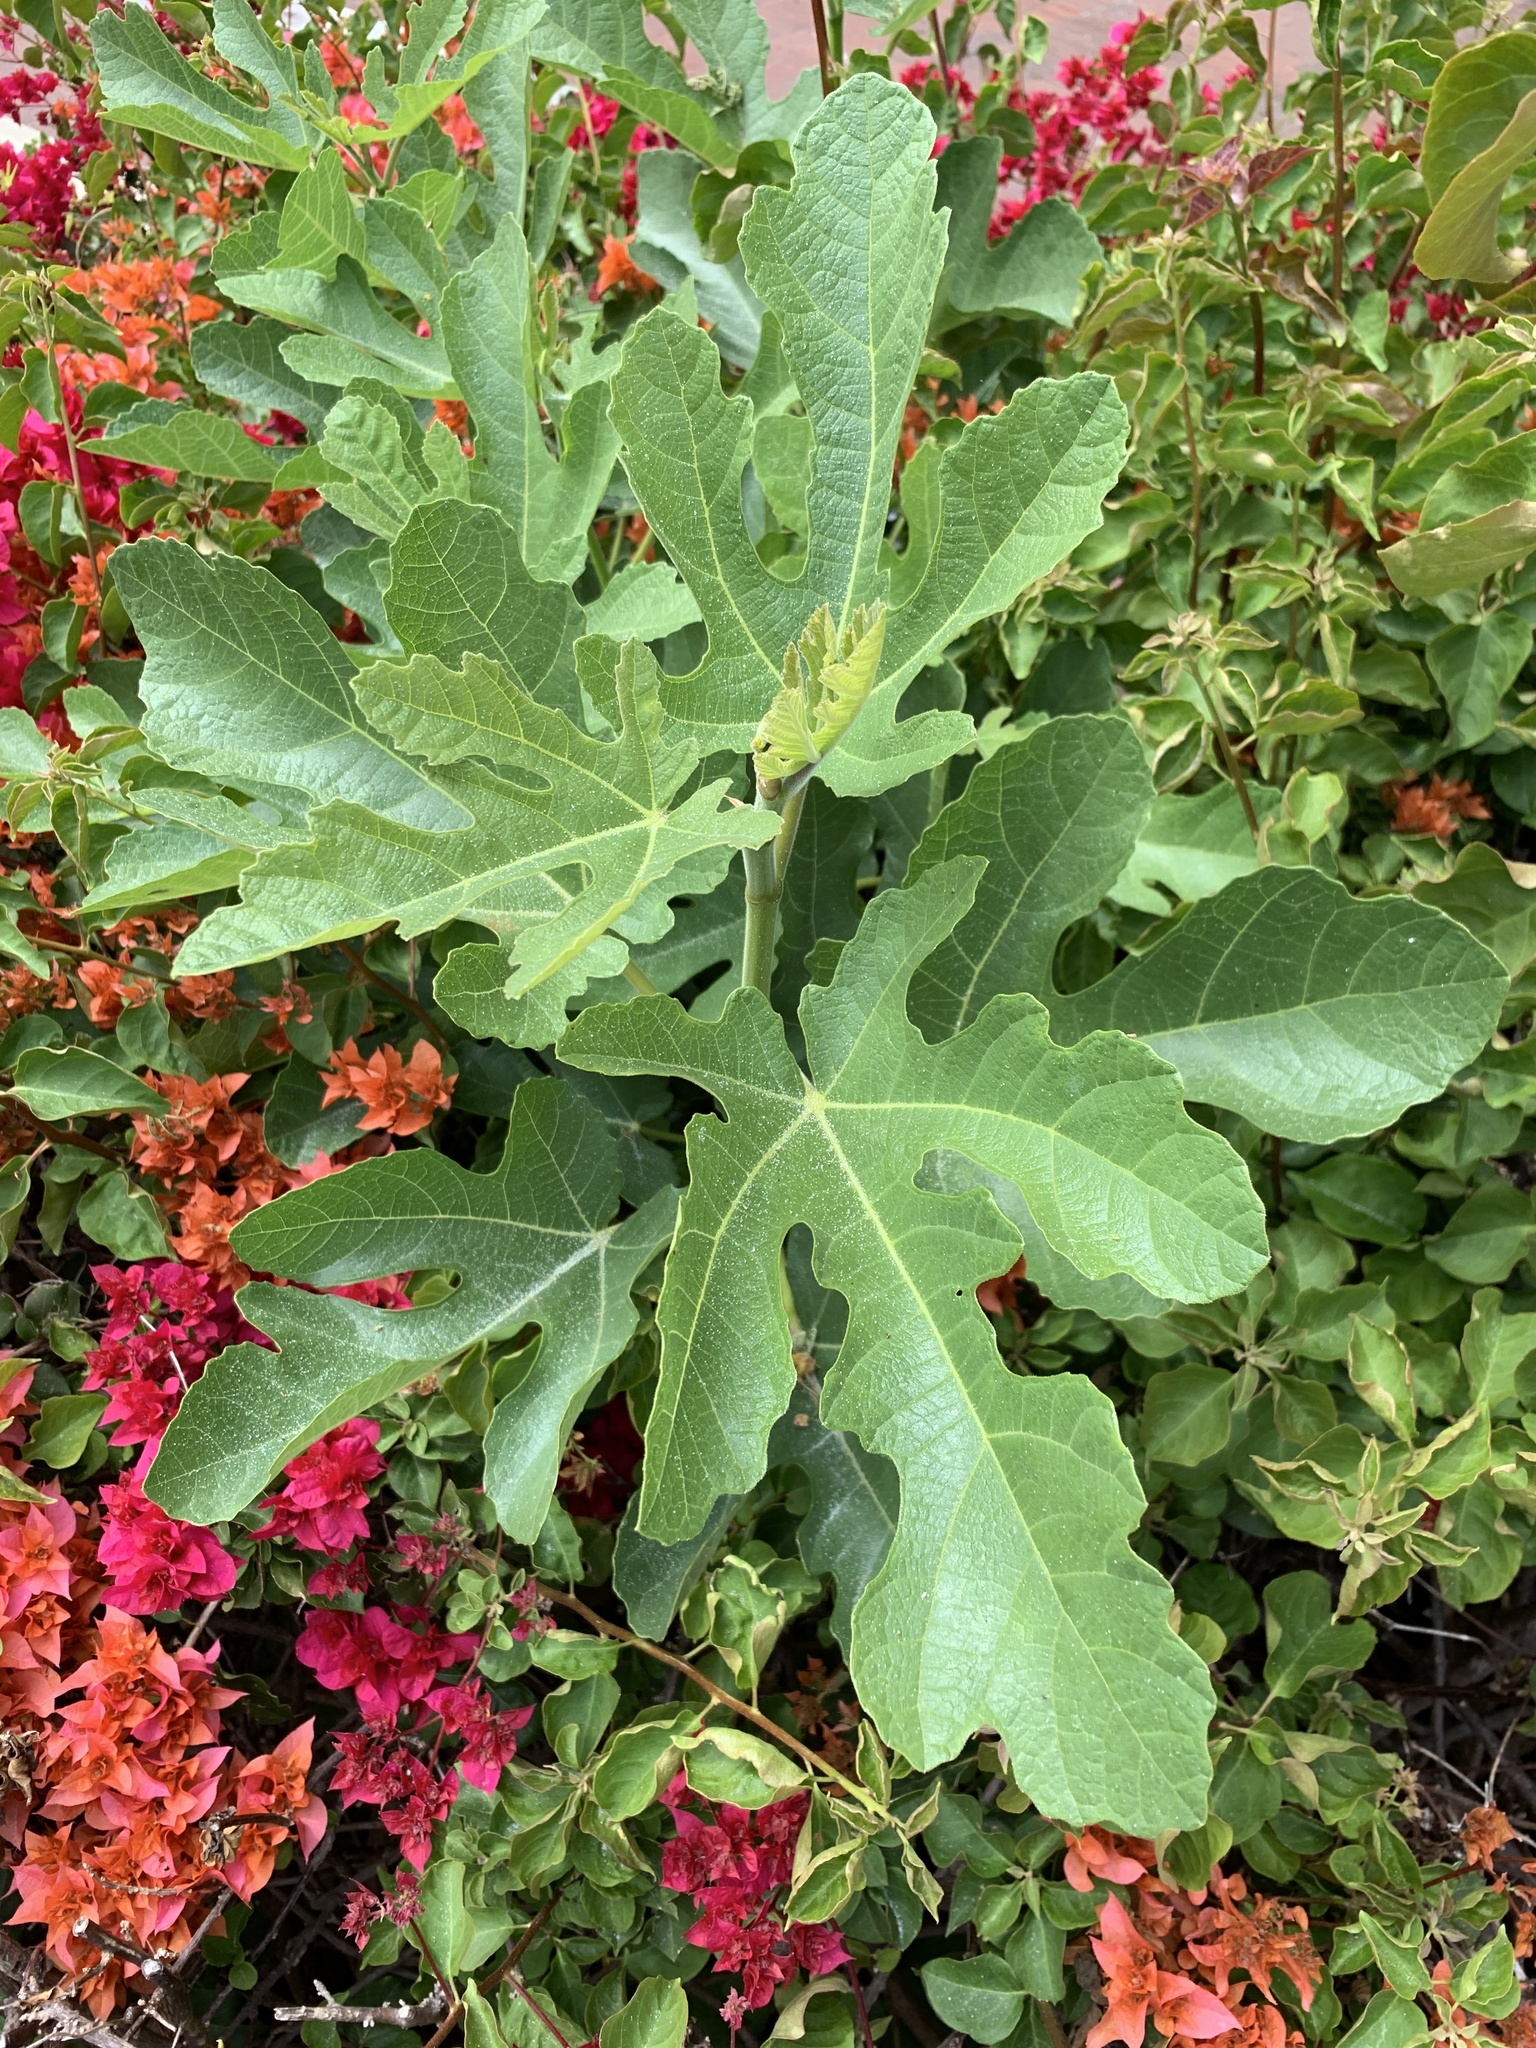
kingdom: Plantae
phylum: Tracheophyta
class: Magnoliopsida
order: Rosales
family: Moraceae
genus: Ficus
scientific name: Ficus carica
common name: Fig
